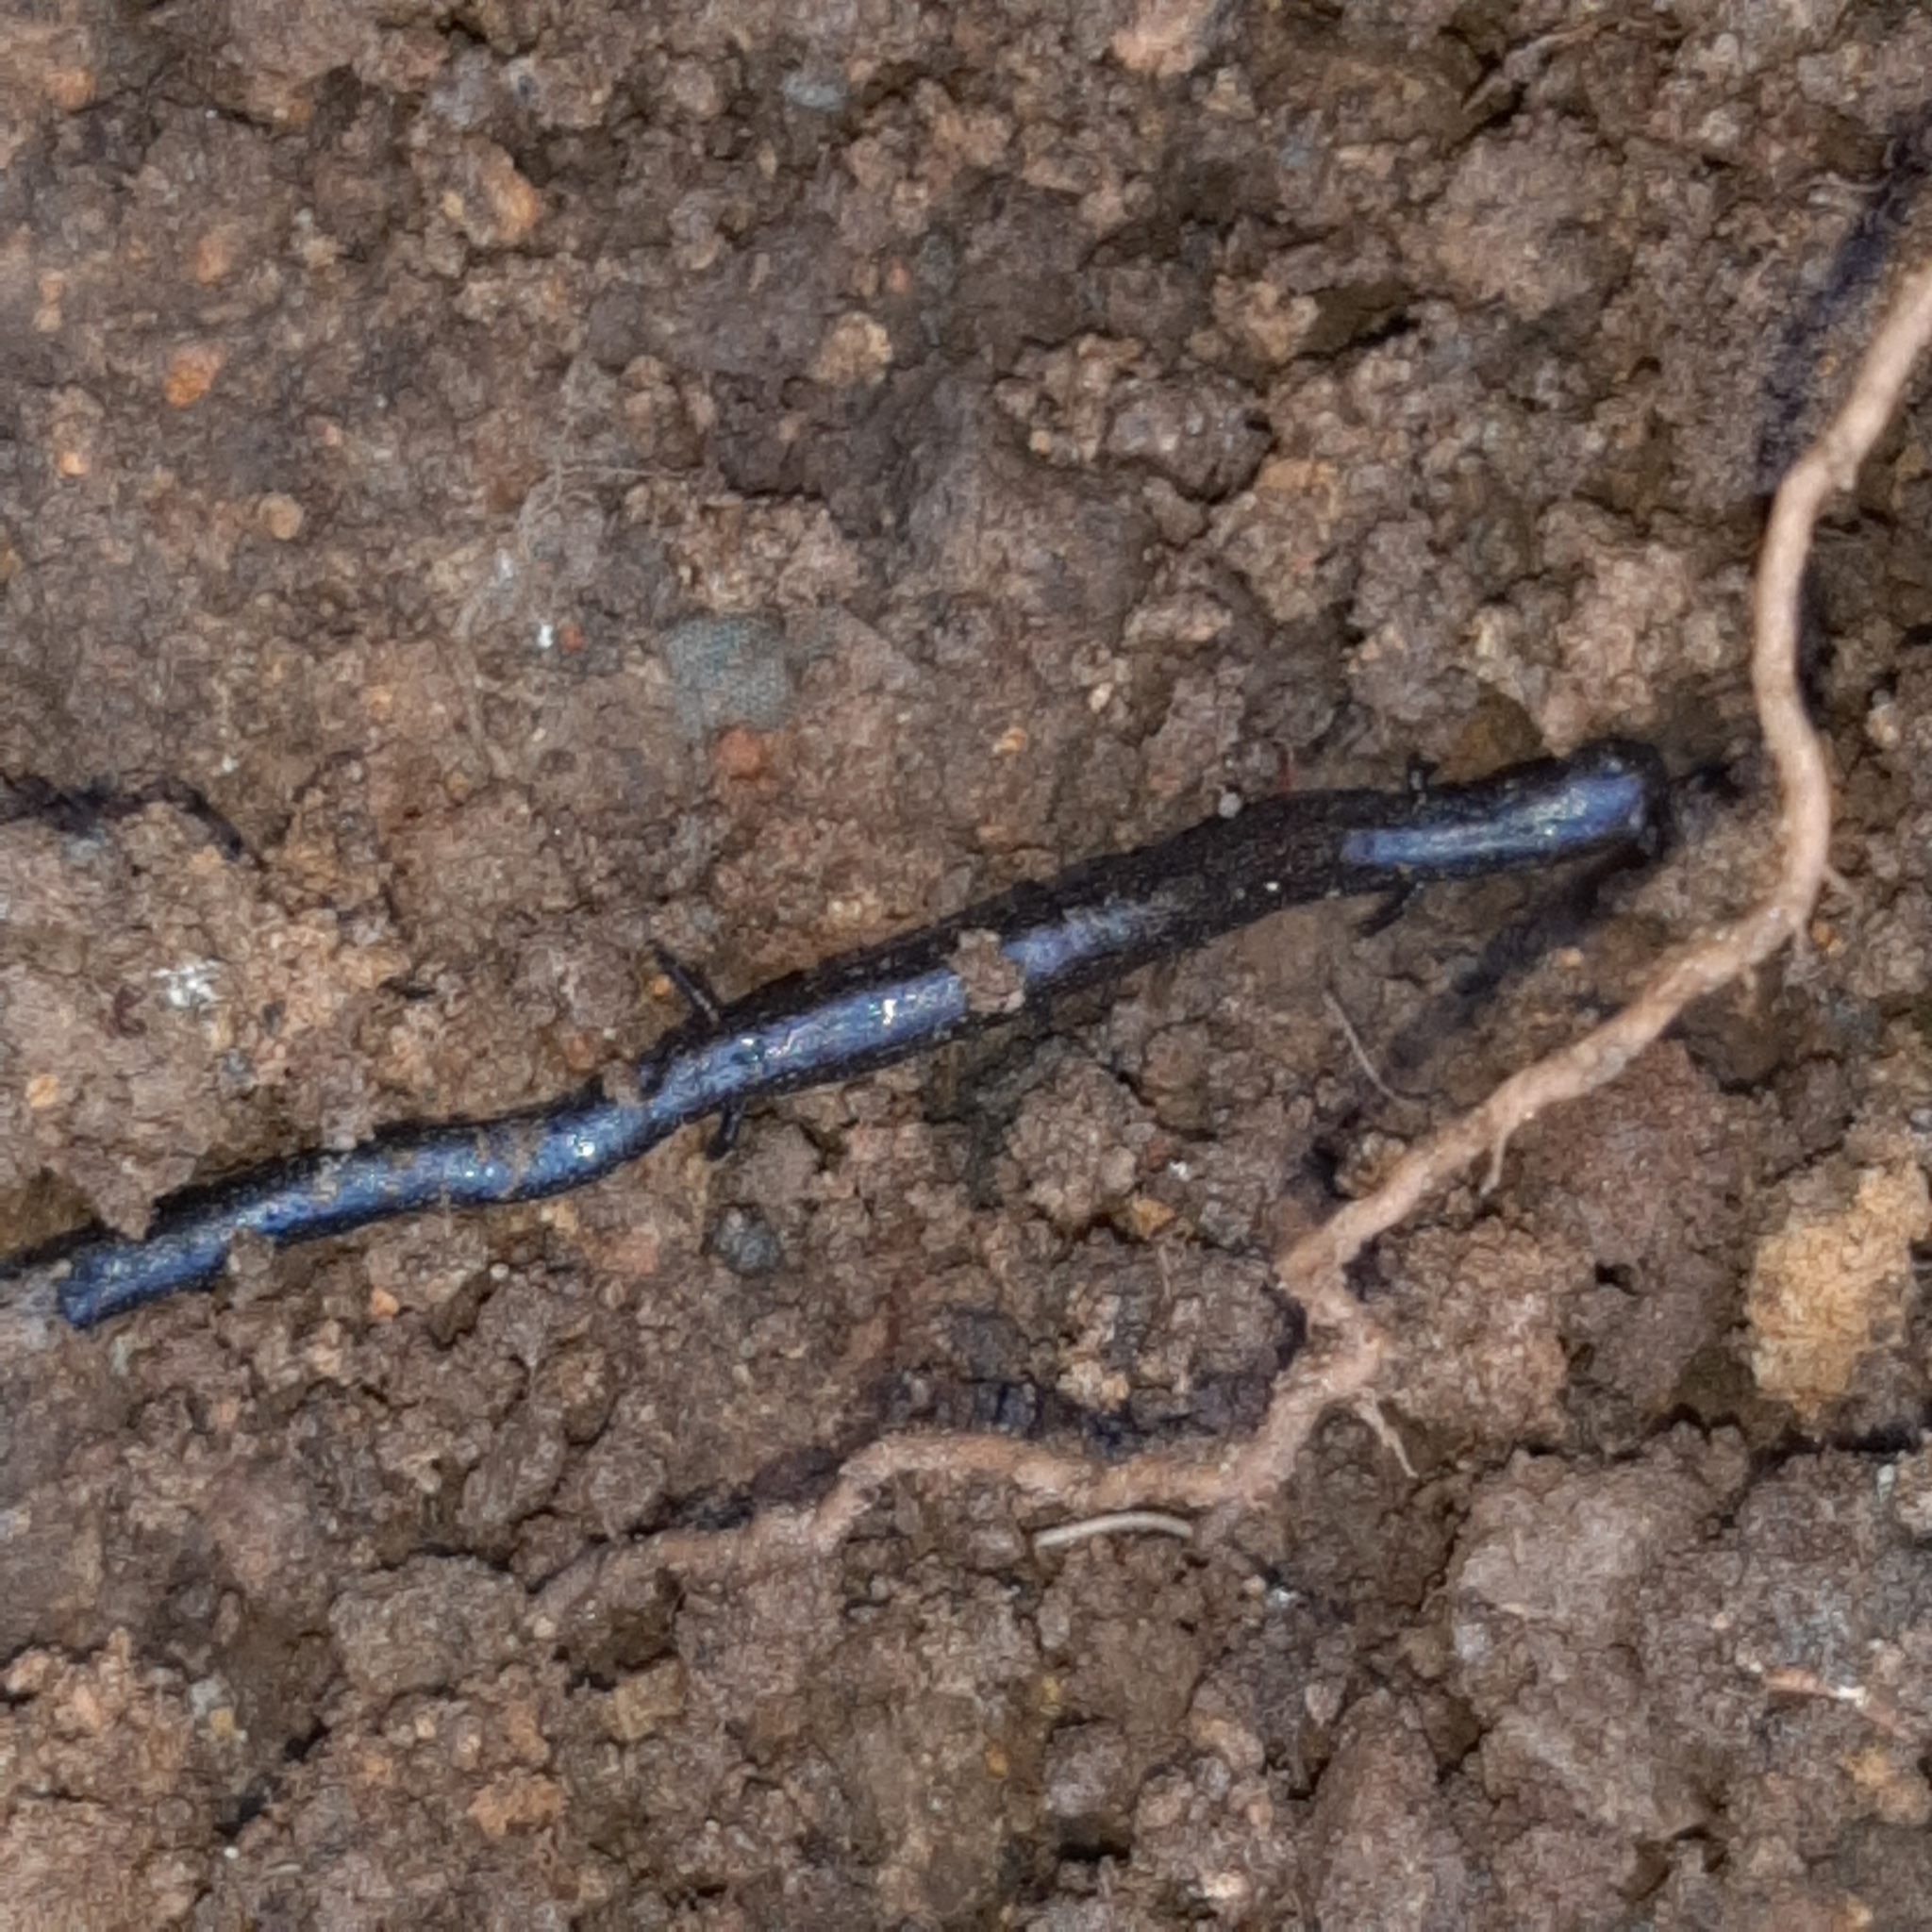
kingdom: Animalia
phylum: Chordata
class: Amphibia
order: Caudata
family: Plethodontidae
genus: Oedipina
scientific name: Oedipina uniformis
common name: Cienega colorado worm salamander
